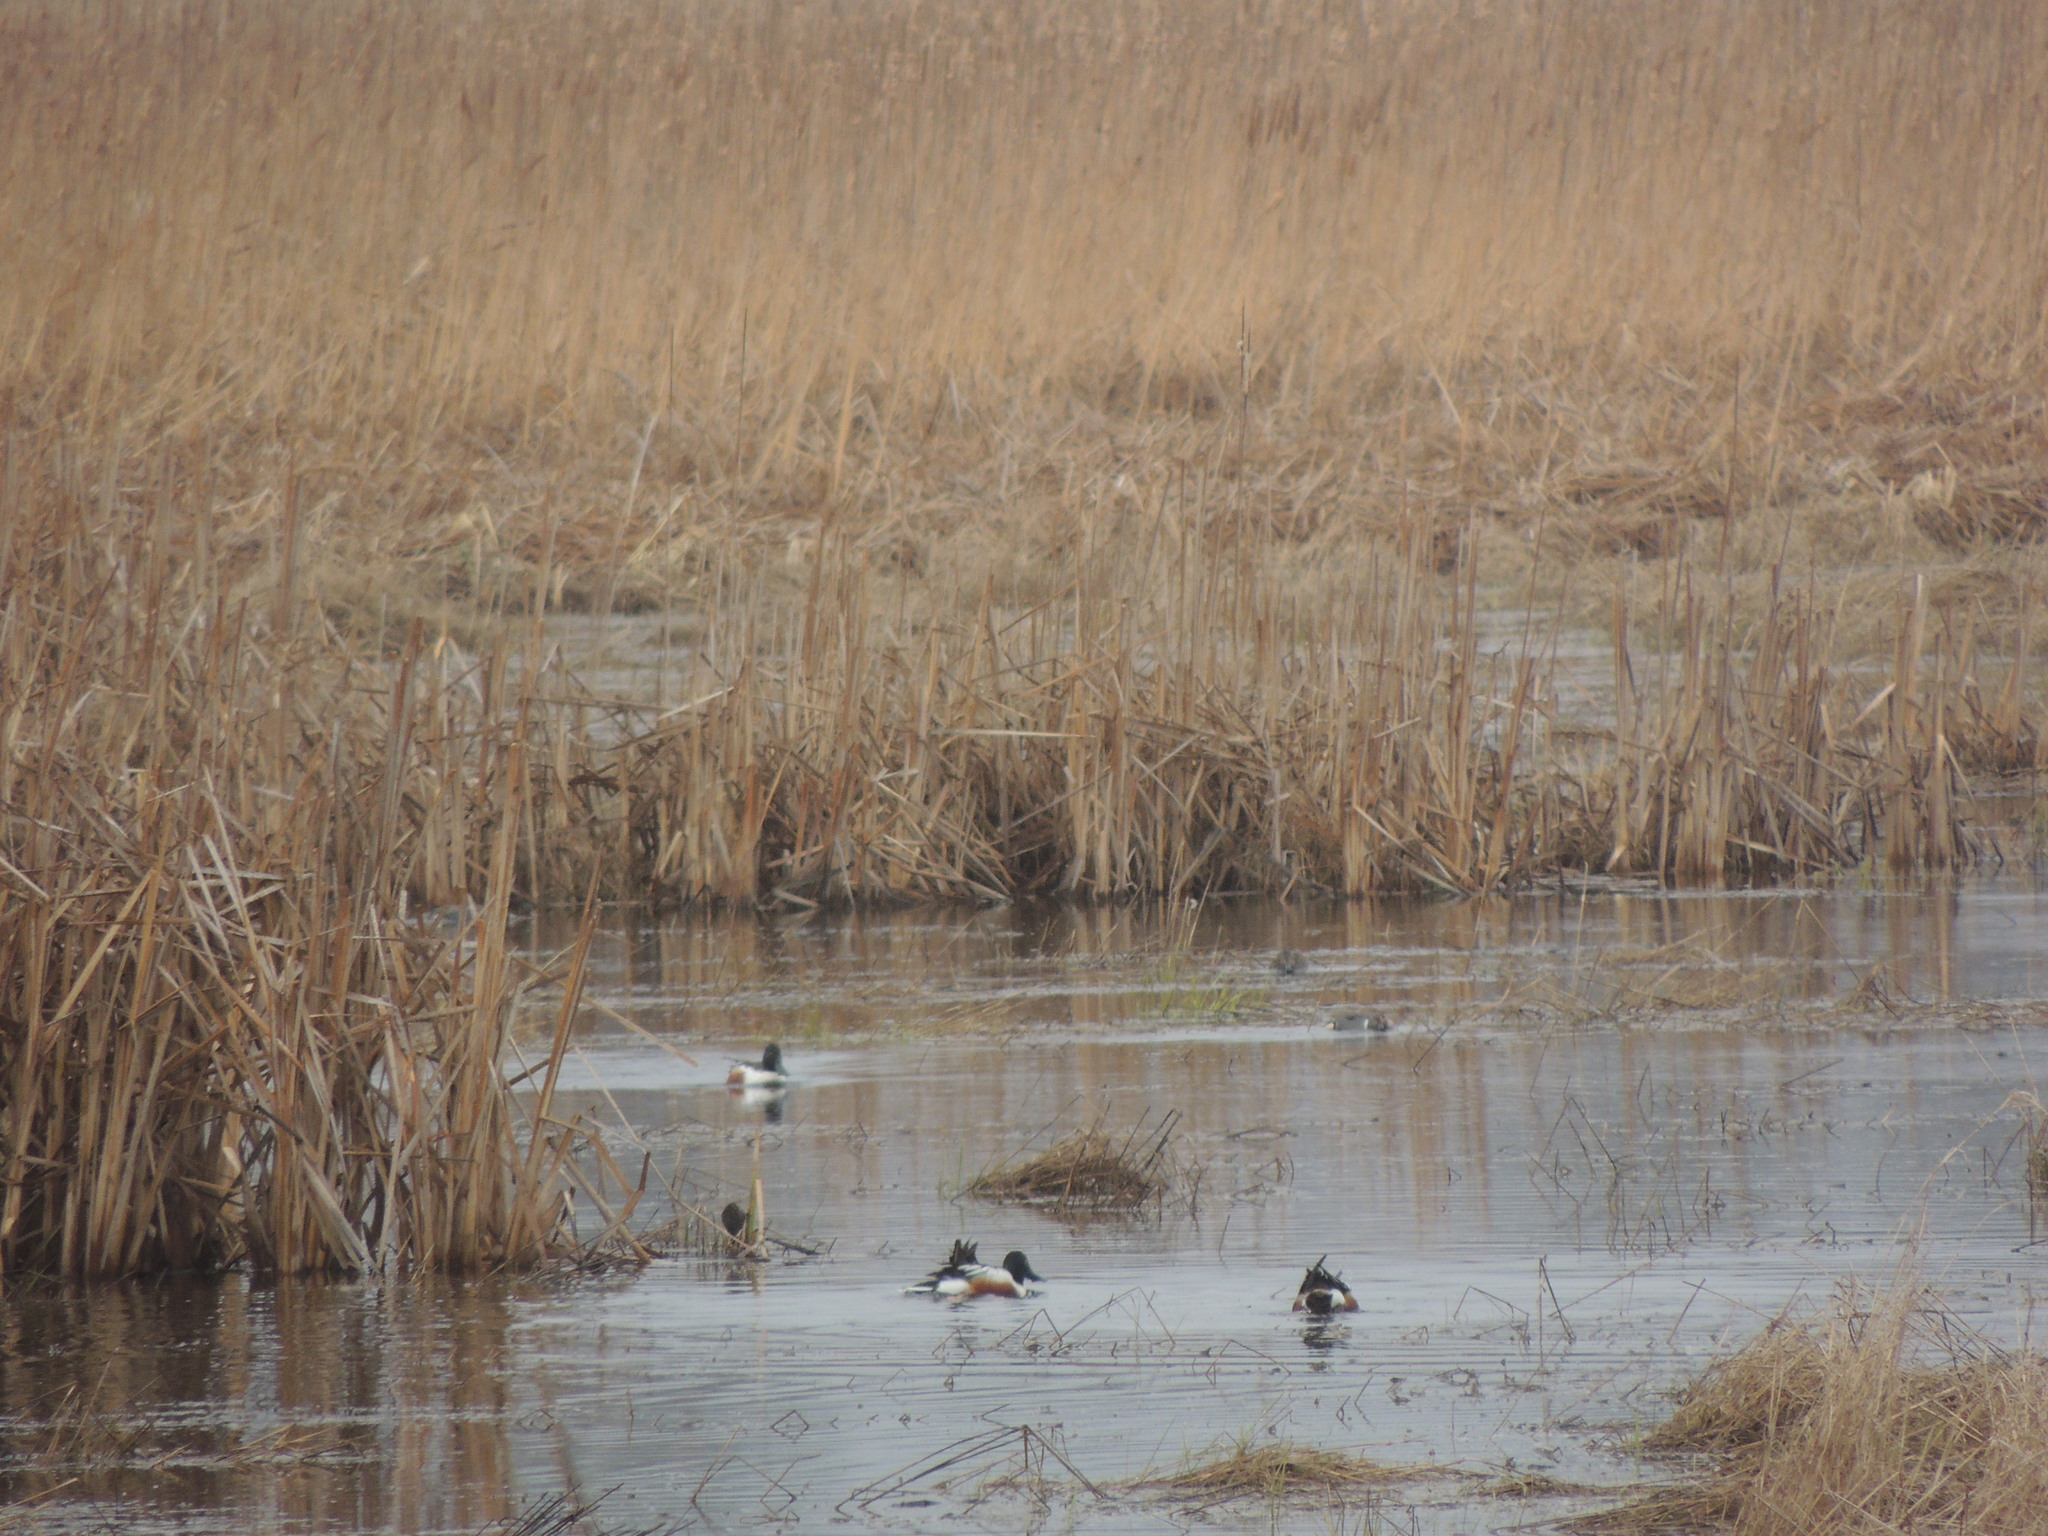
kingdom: Animalia
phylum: Chordata
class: Aves
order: Anseriformes
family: Anatidae
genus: Anas
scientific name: Anas crecca
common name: Eurasian teal
